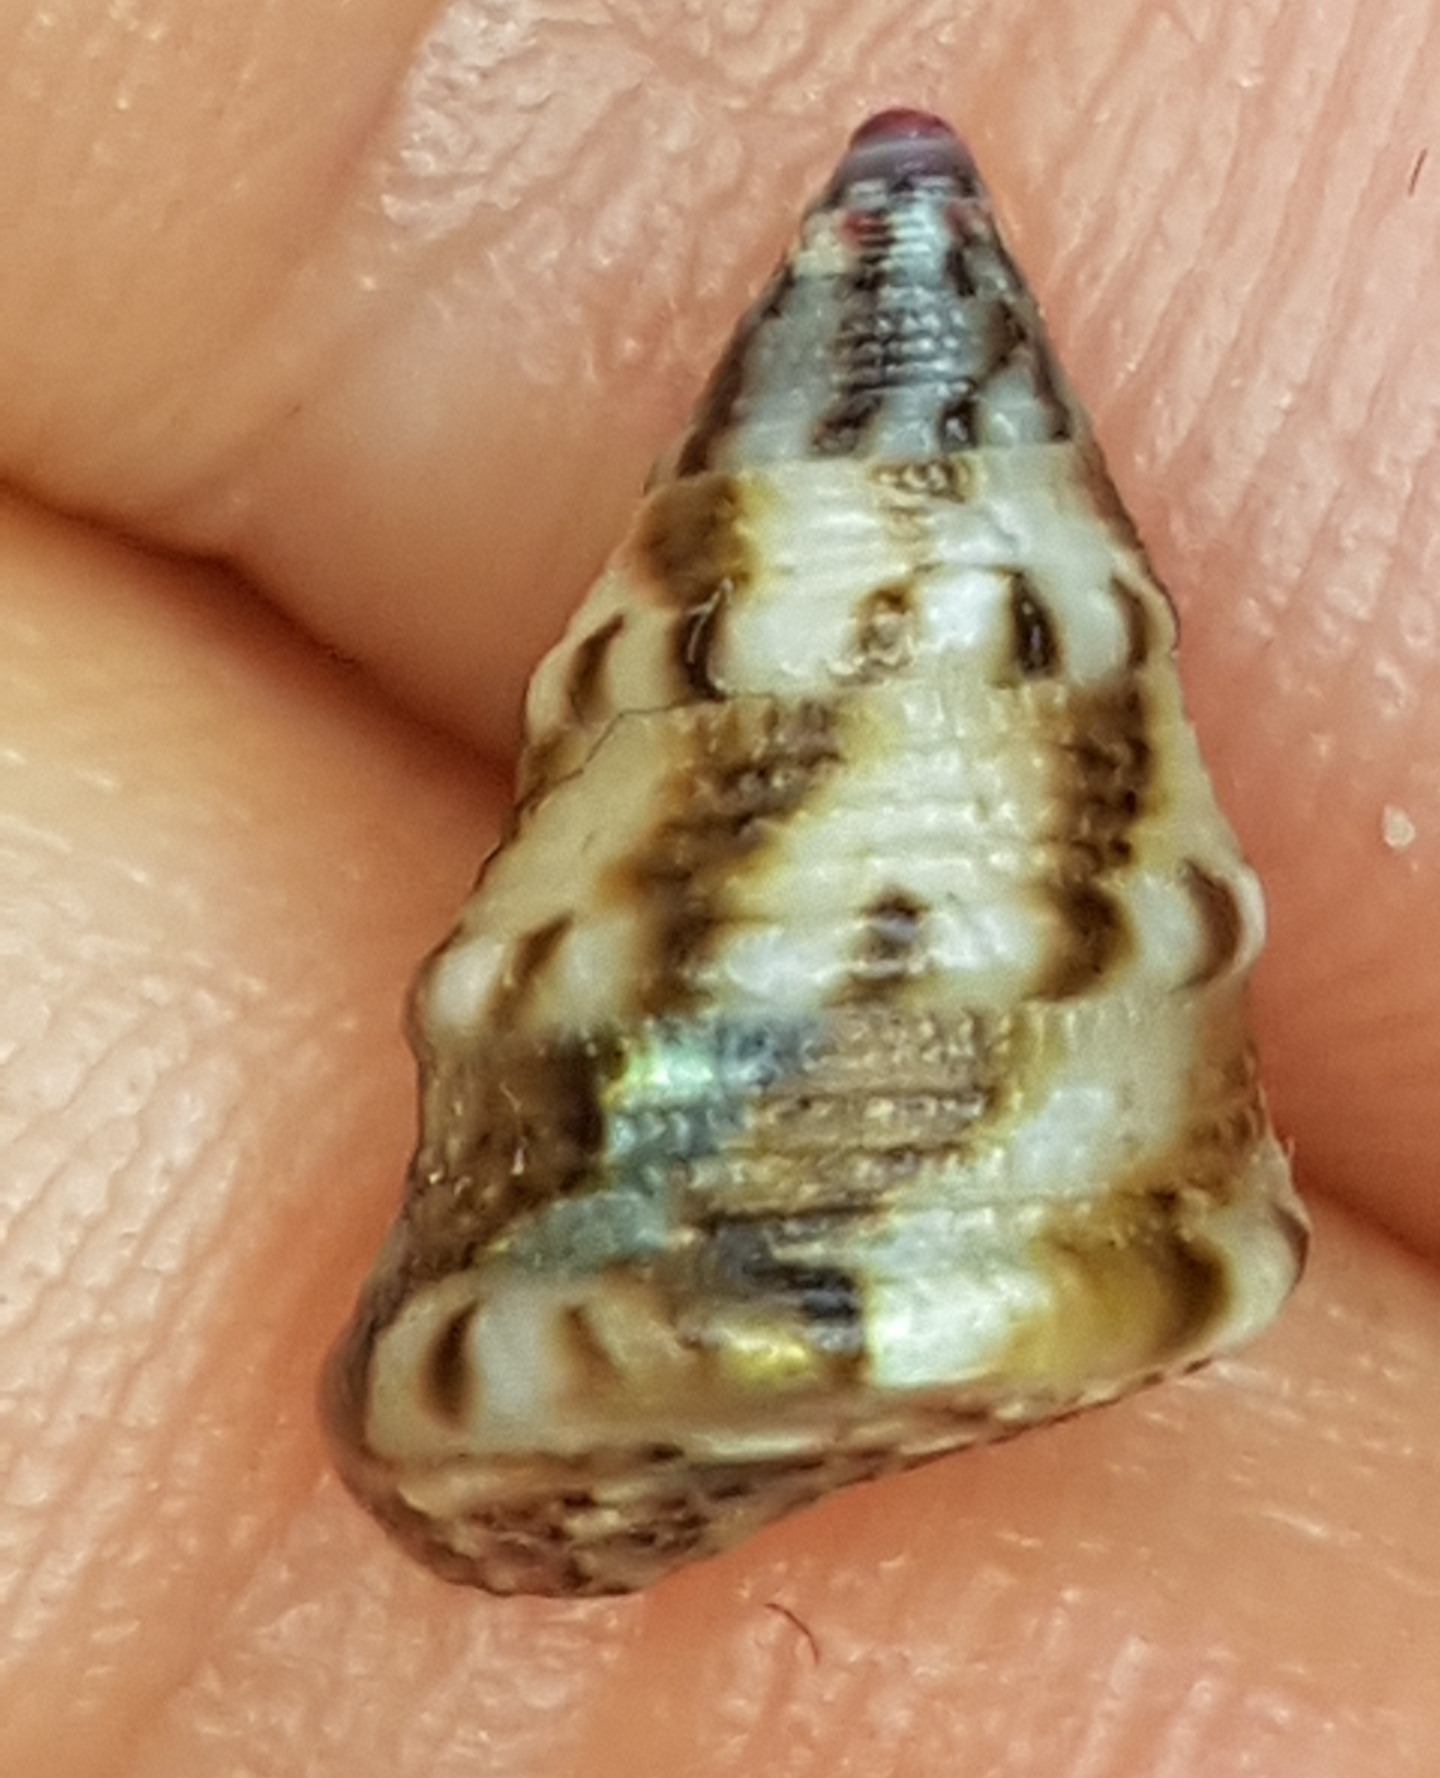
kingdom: Animalia
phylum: Mollusca
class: Gastropoda
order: Trochida
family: Trochidae
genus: Jujubinus
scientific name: Jujubinus exasperatus
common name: Rough top shell
